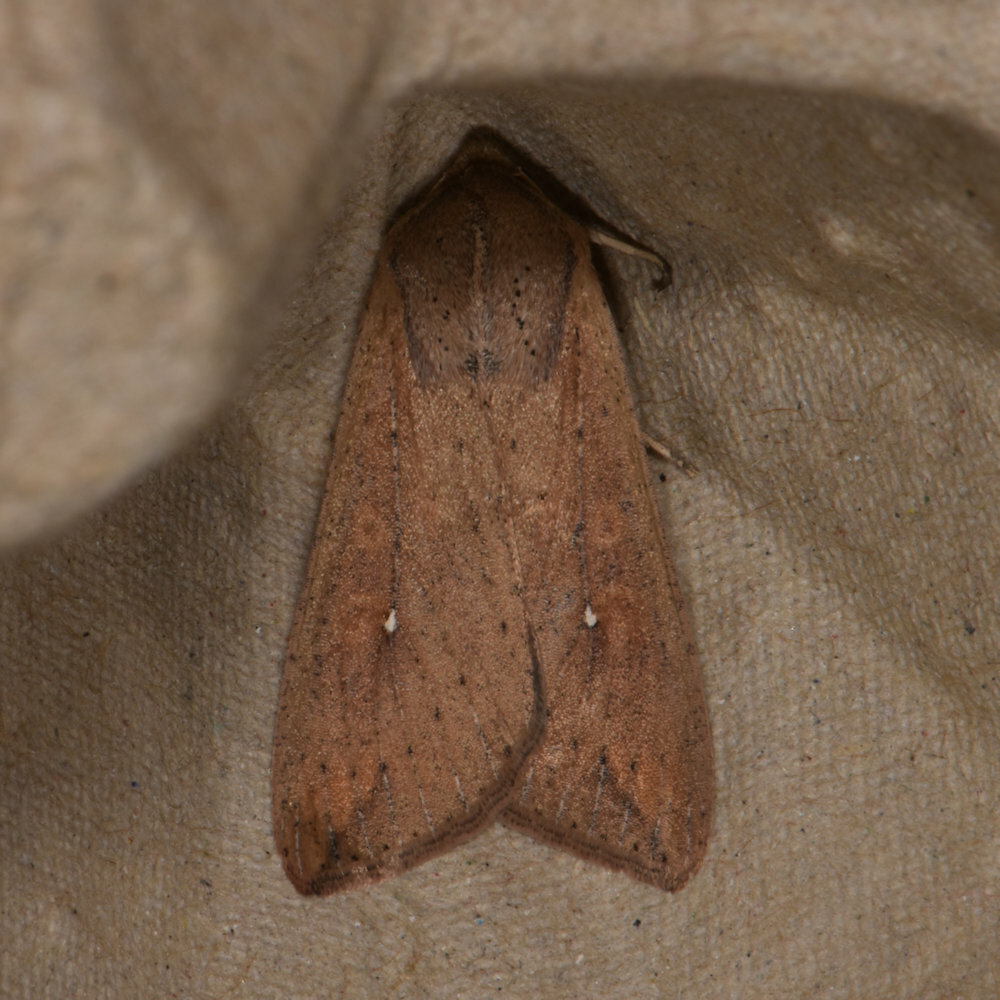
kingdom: Animalia
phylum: Arthropoda
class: Insecta
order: Lepidoptera
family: Noctuidae
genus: Mythimna
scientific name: Mythimna unipuncta
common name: White-speck
